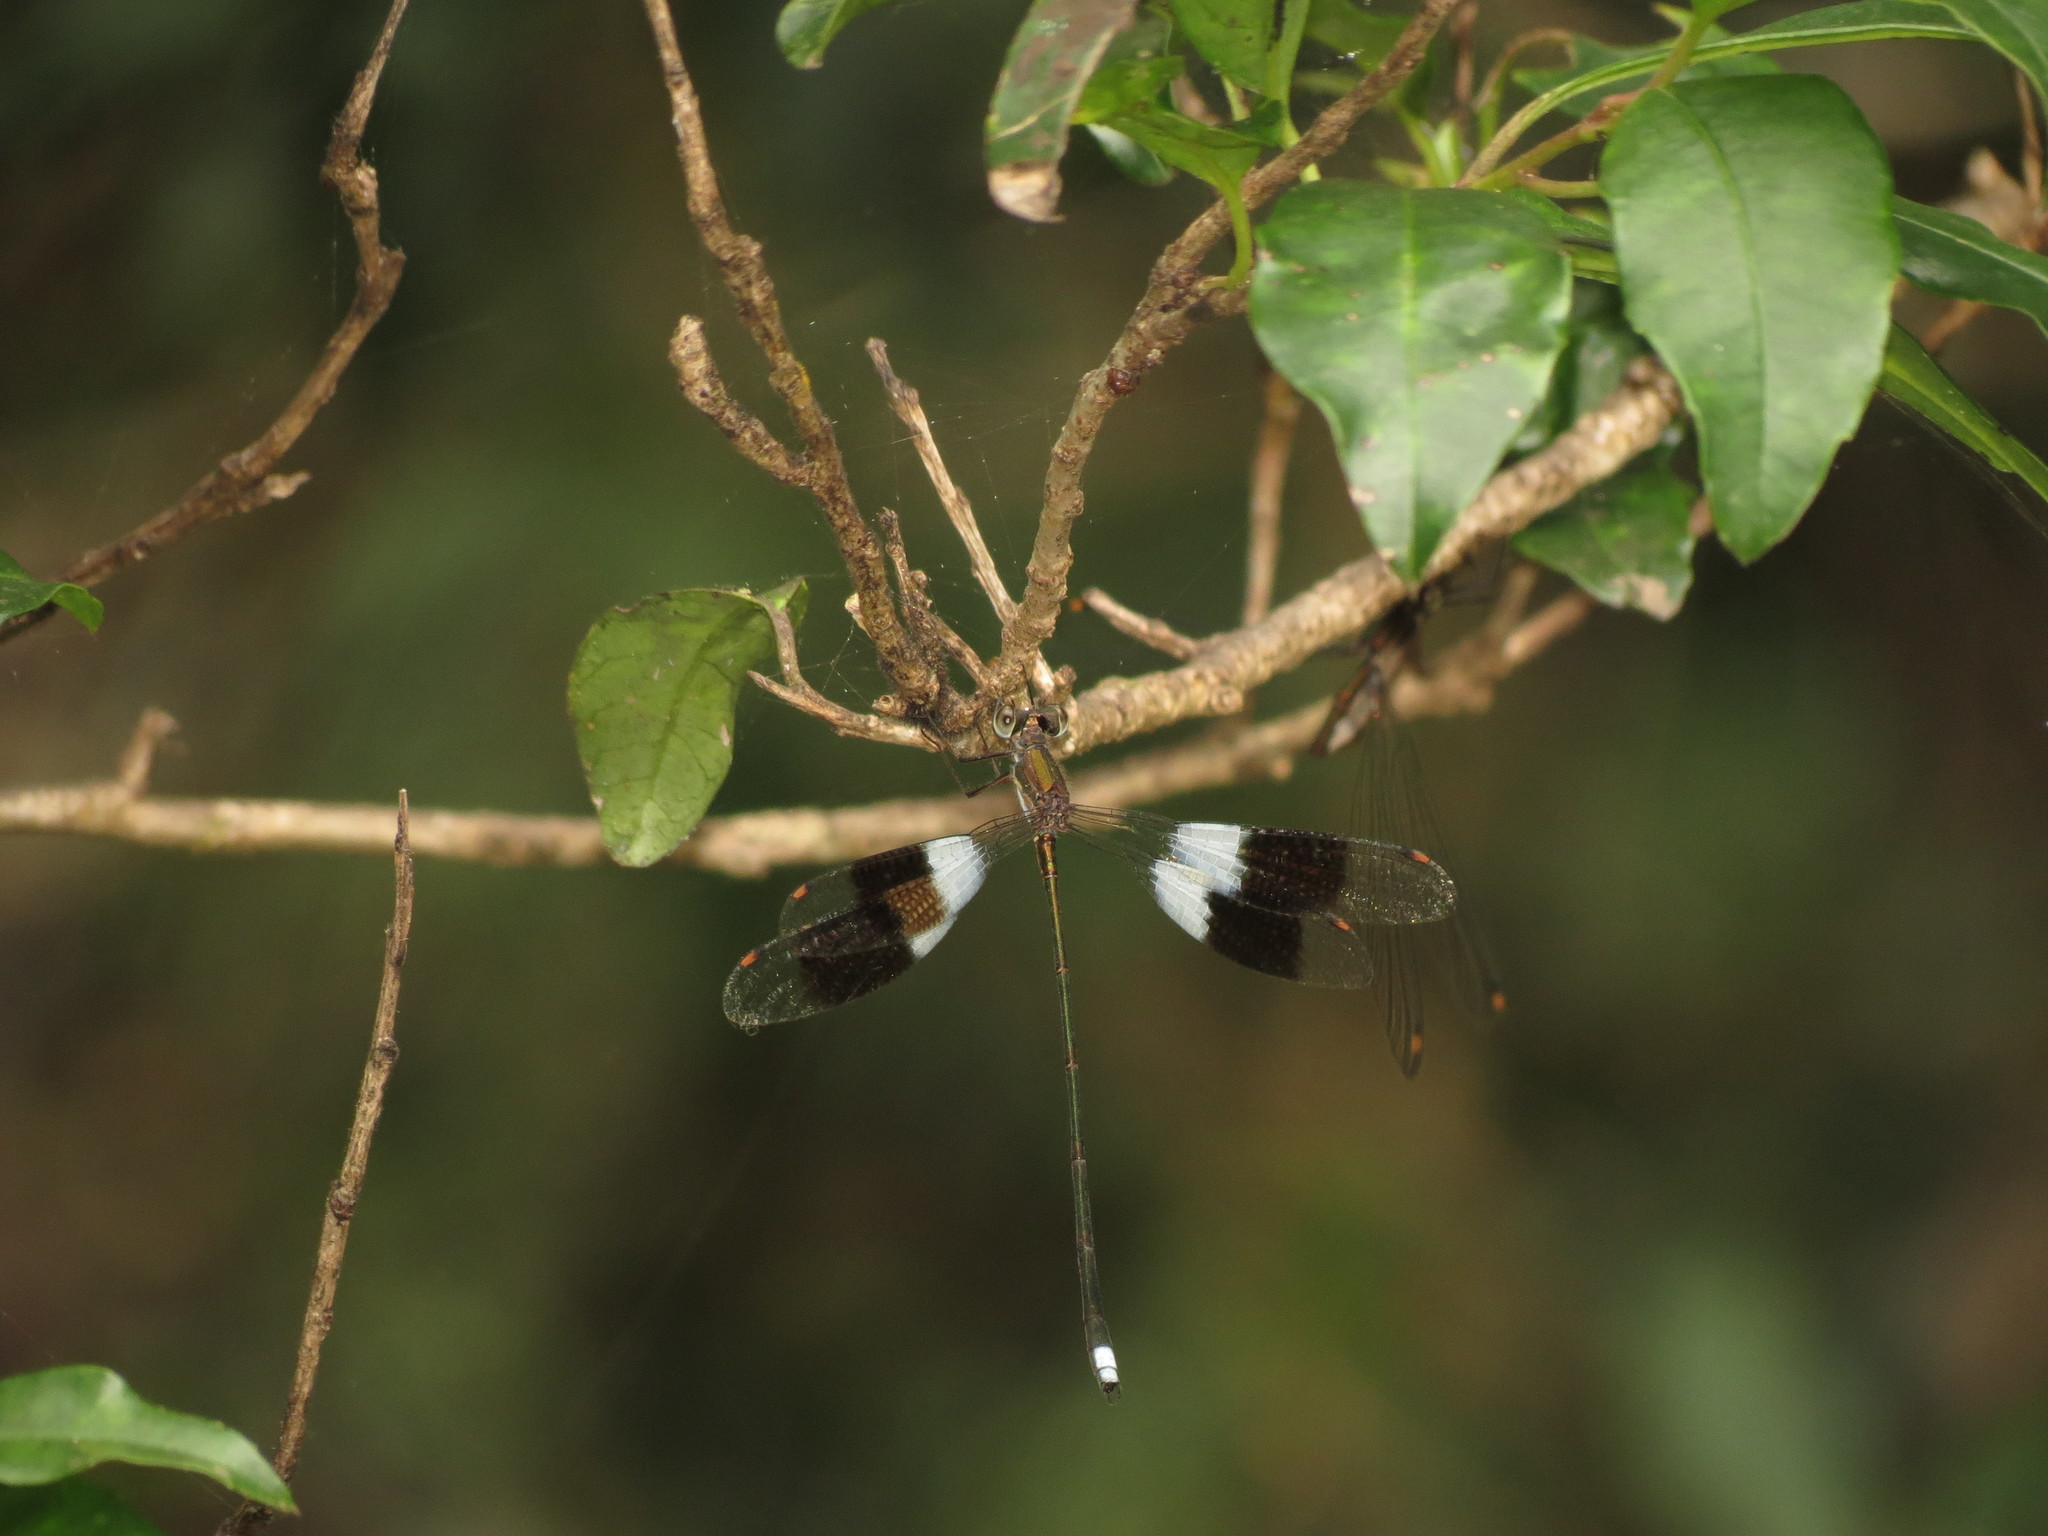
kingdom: Animalia
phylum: Arthropoda
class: Insecta
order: Odonata
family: Synlestidae
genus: Chlorolestes
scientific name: Chlorolestes tessellatus
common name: Forest malachite
